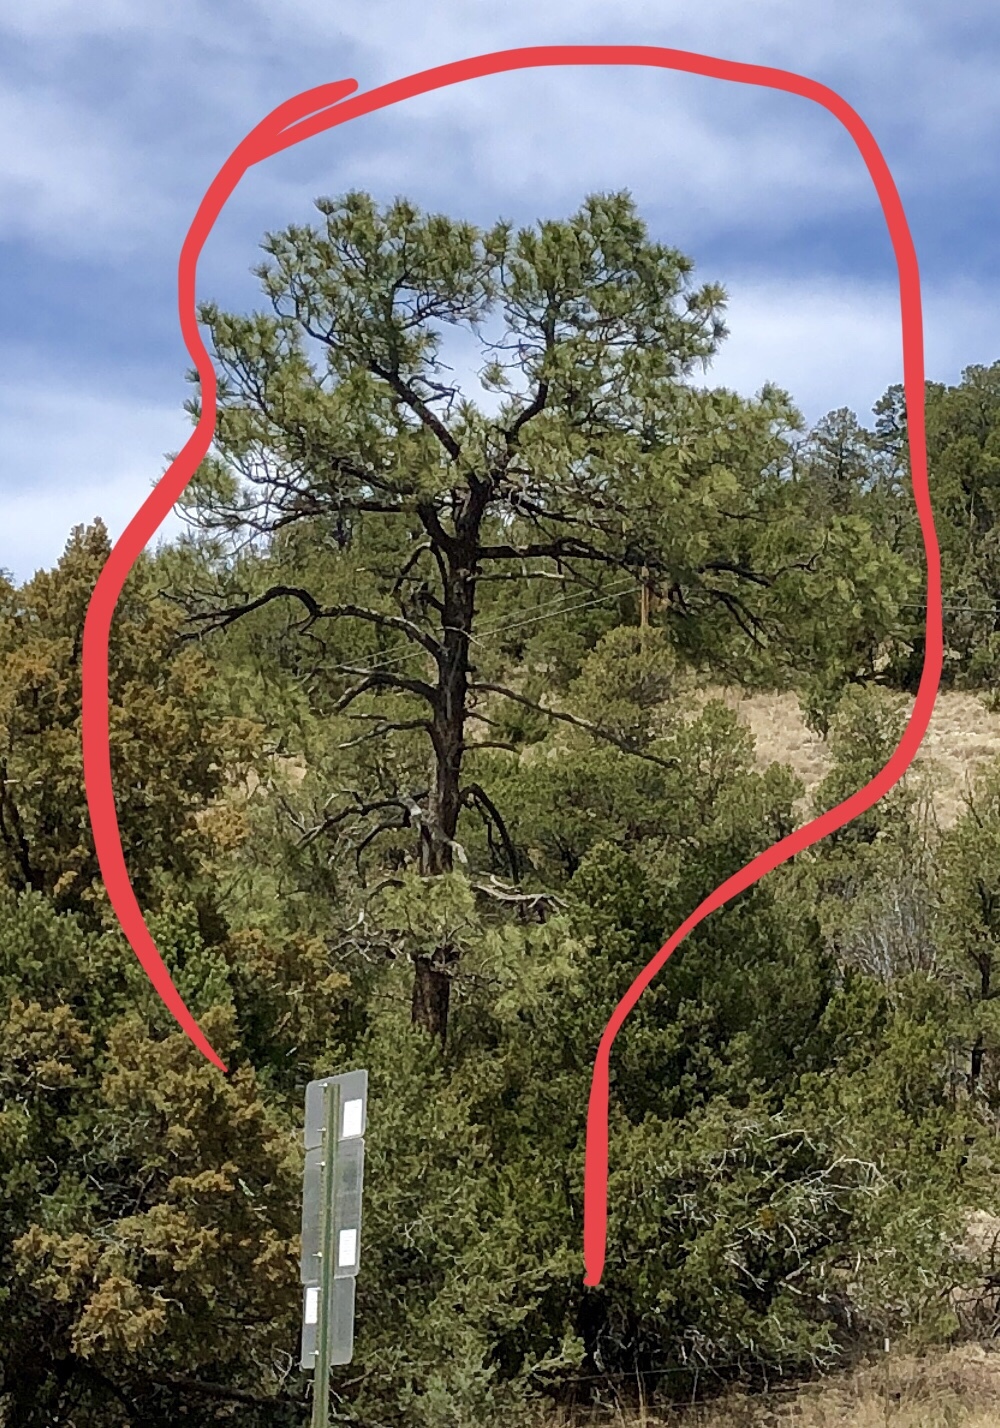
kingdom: Plantae
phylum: Tracheophyta
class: Pinopsida
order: Pinales
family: Pinaceae
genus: Pinus
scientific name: Pinus ponderosa
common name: Western yellow-pine
